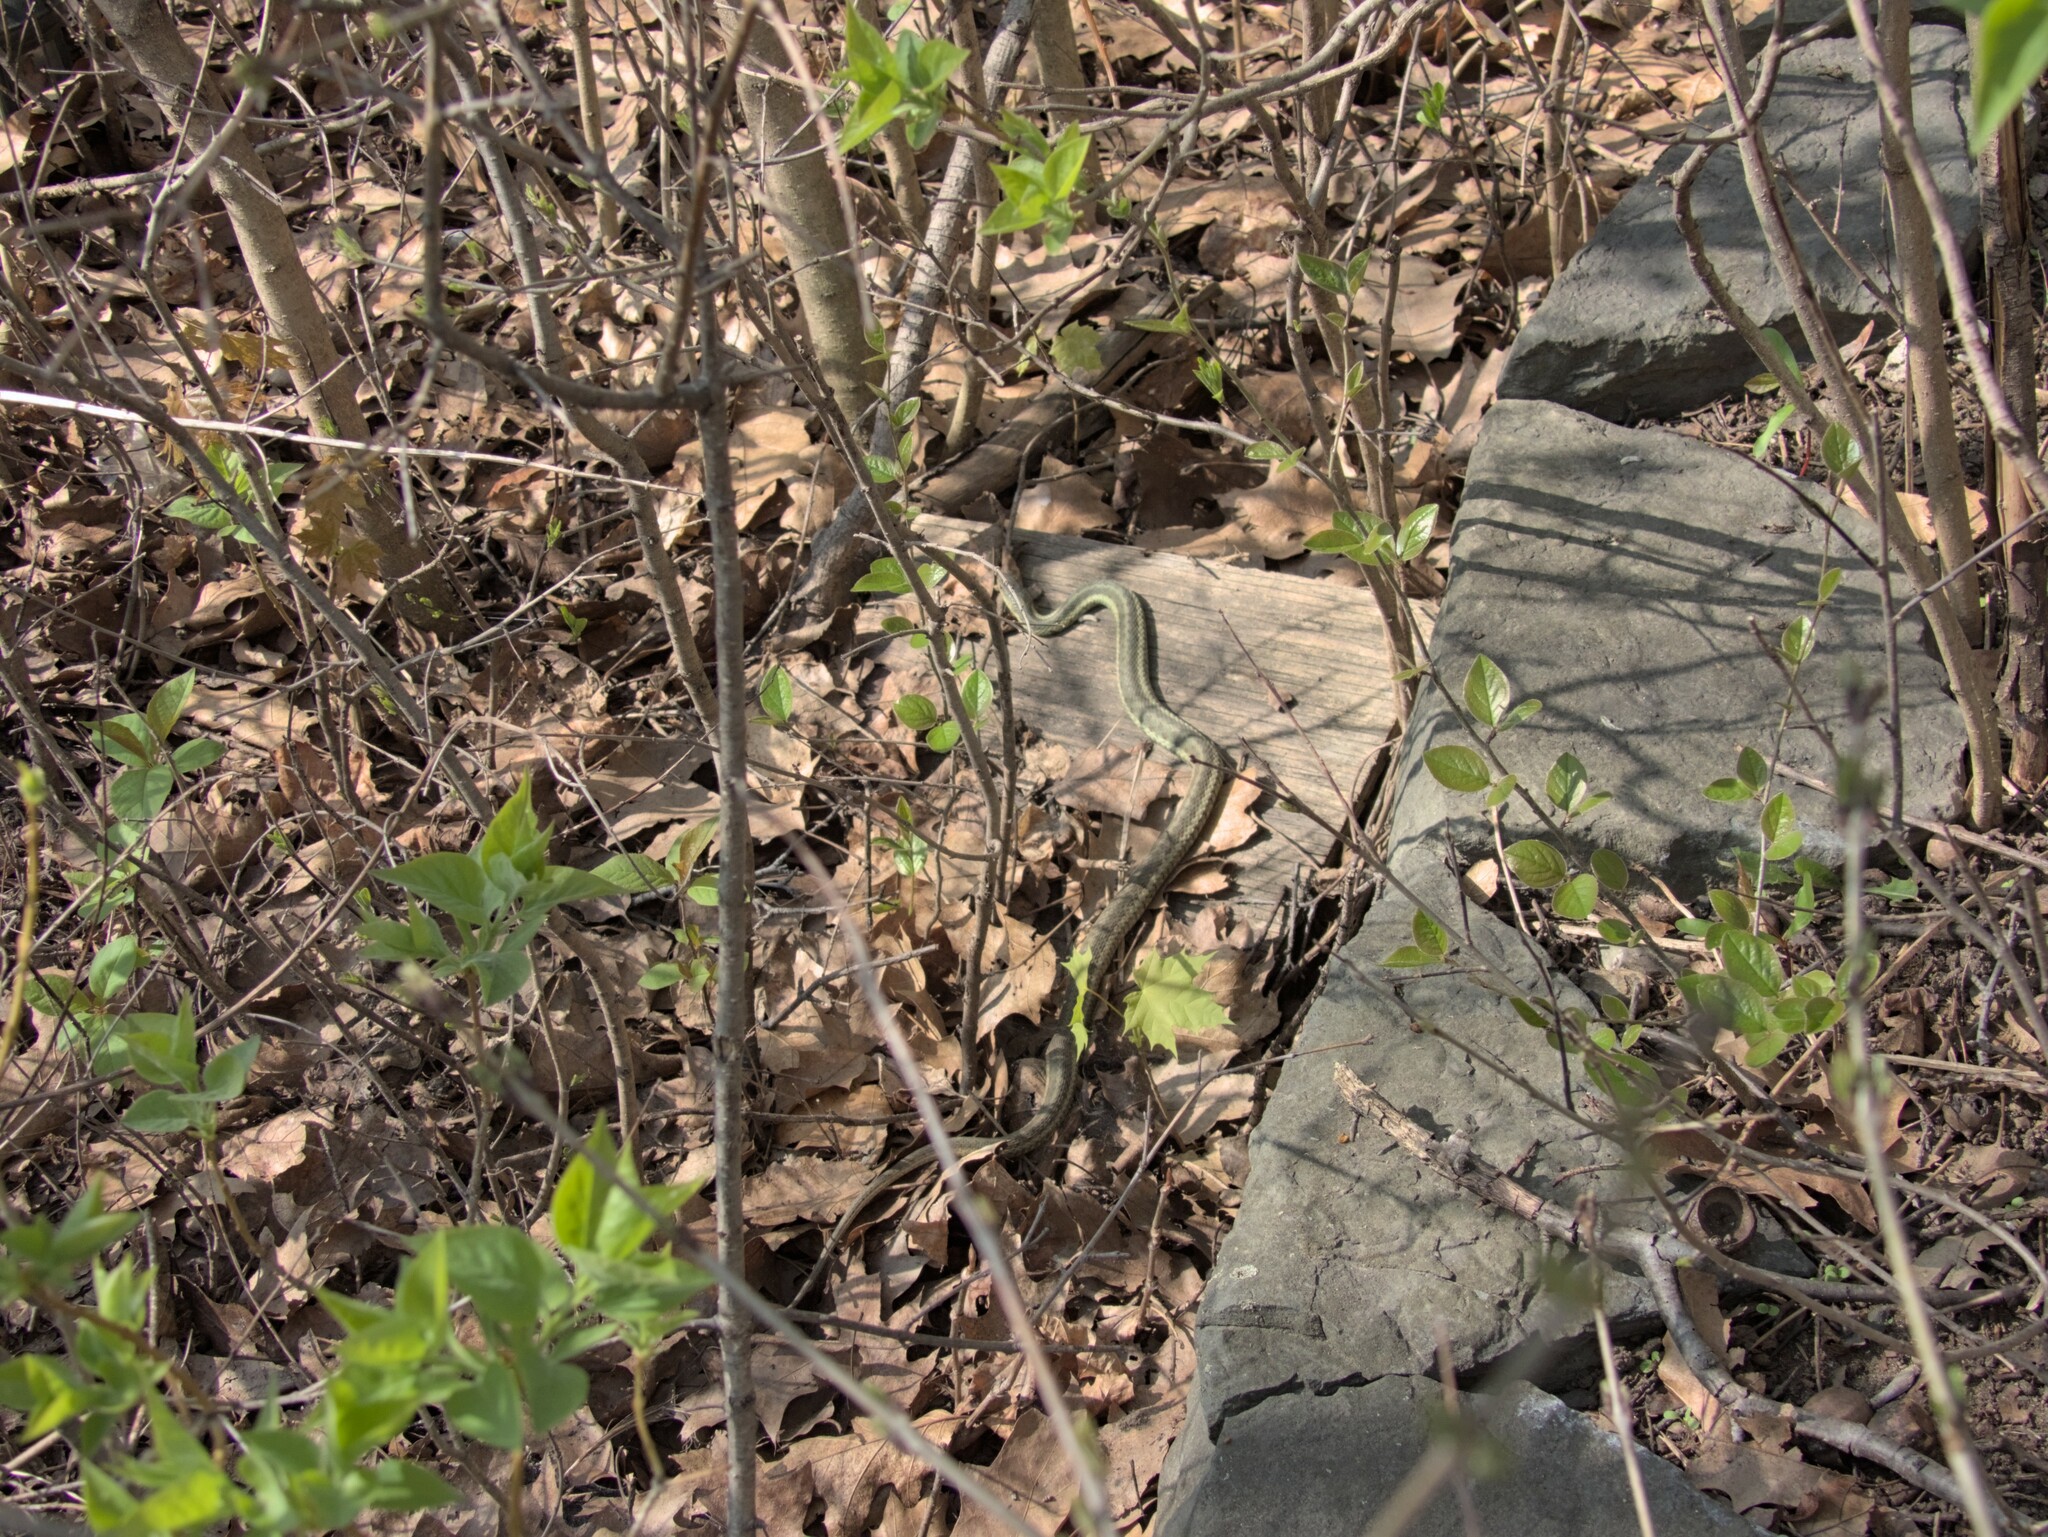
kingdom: Animalia
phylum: Chordata
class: Squamata
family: Colubridae
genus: Thamnophis
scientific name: Thamnophis sirtalis
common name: Common garter snake
